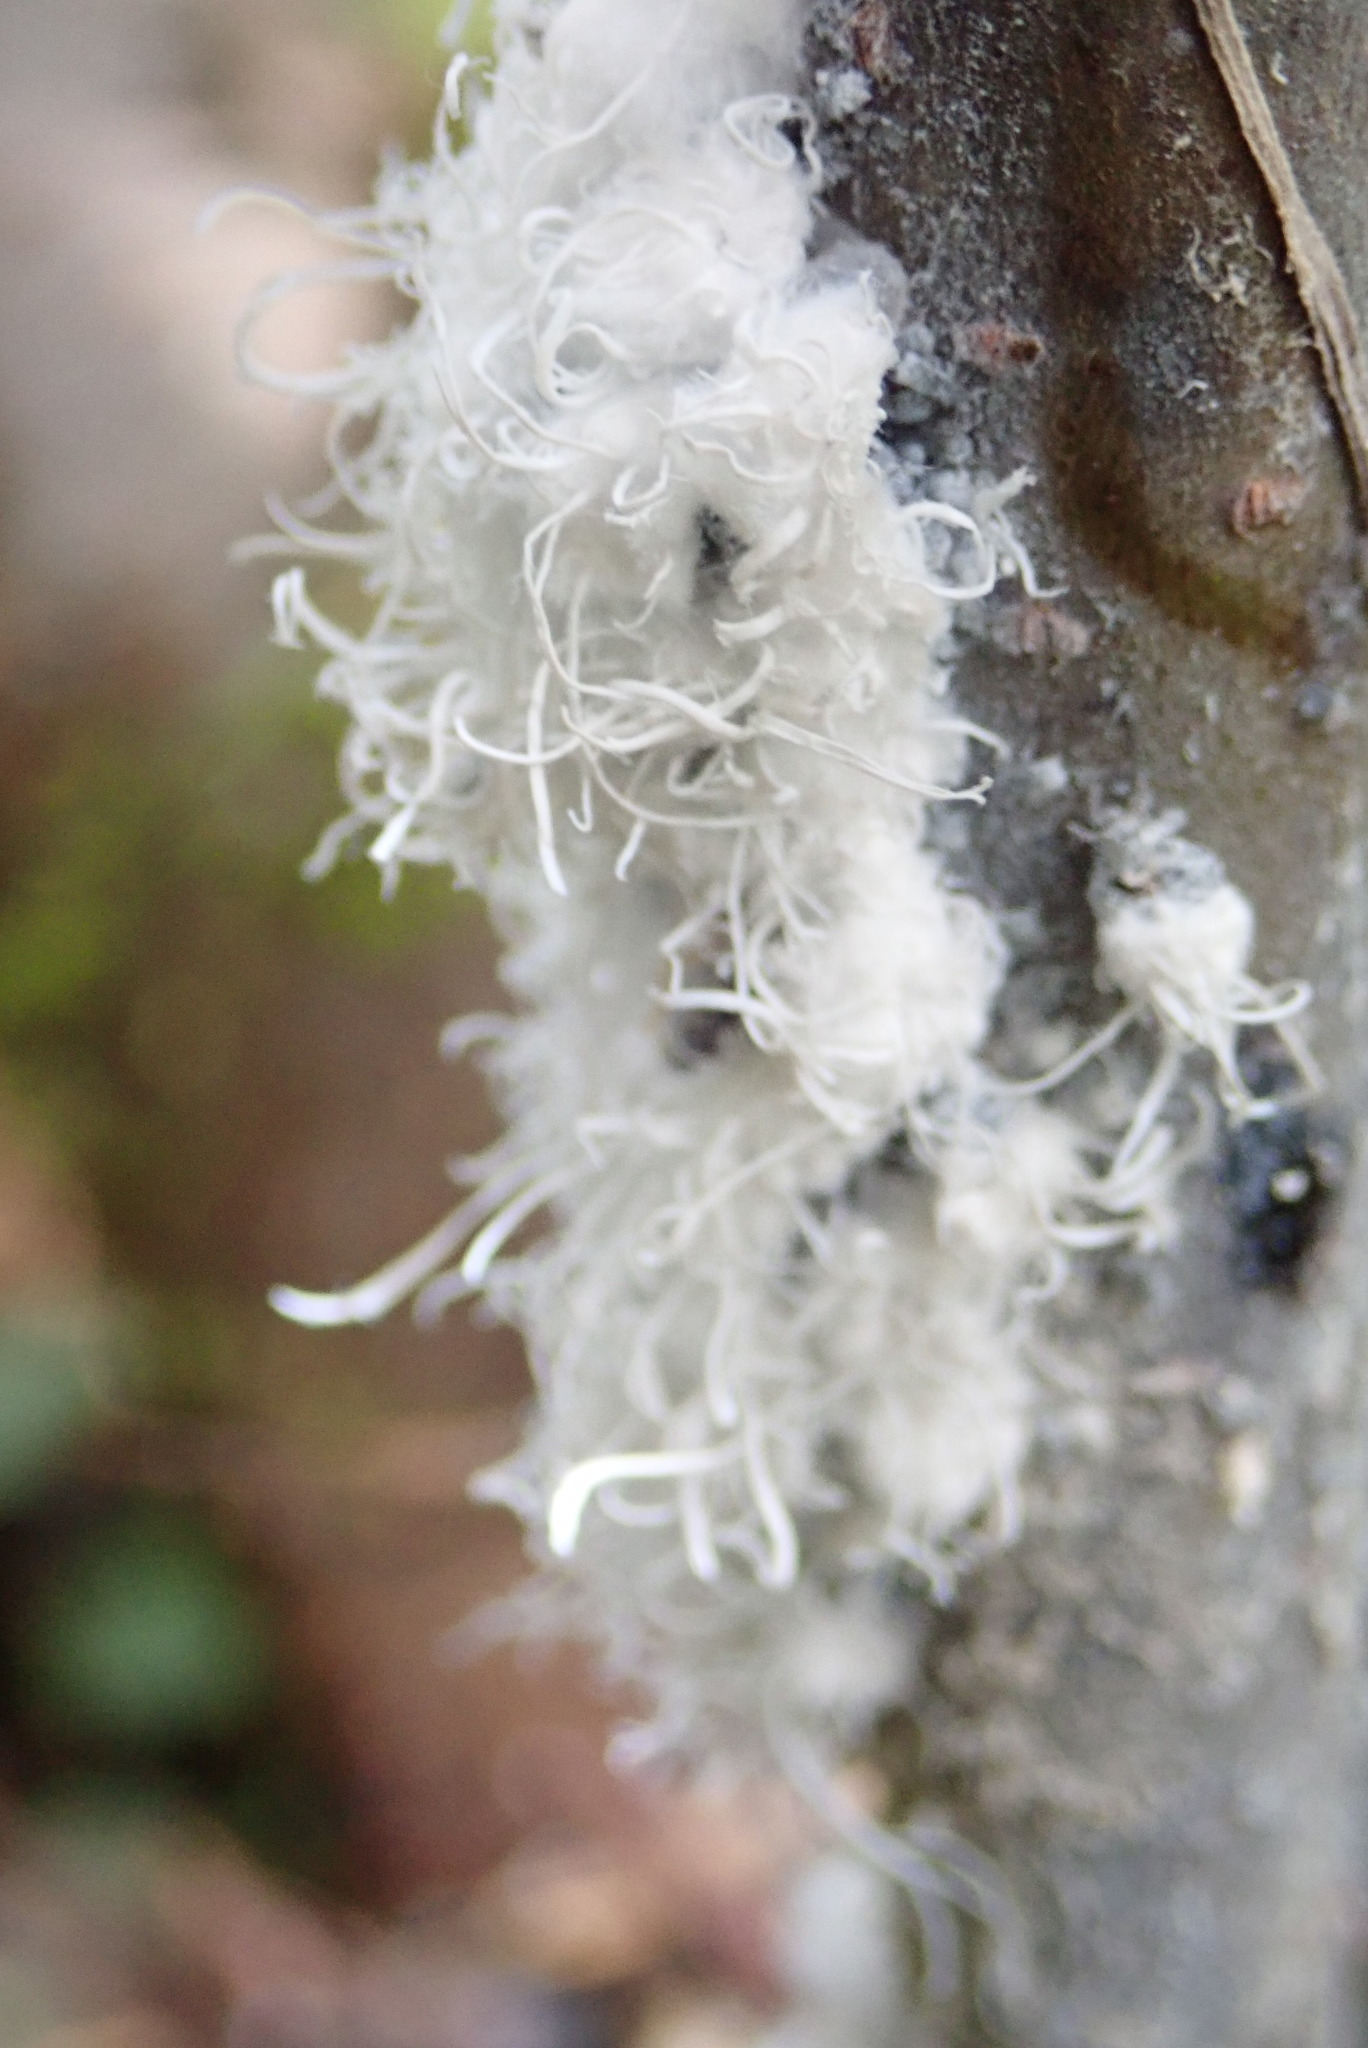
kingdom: Animalia
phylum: Arthropoda
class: Insecta
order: Hemiptera
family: Aphididae
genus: Prociphilus
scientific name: Prociphilus tessellatus
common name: Woolly alder aphid
